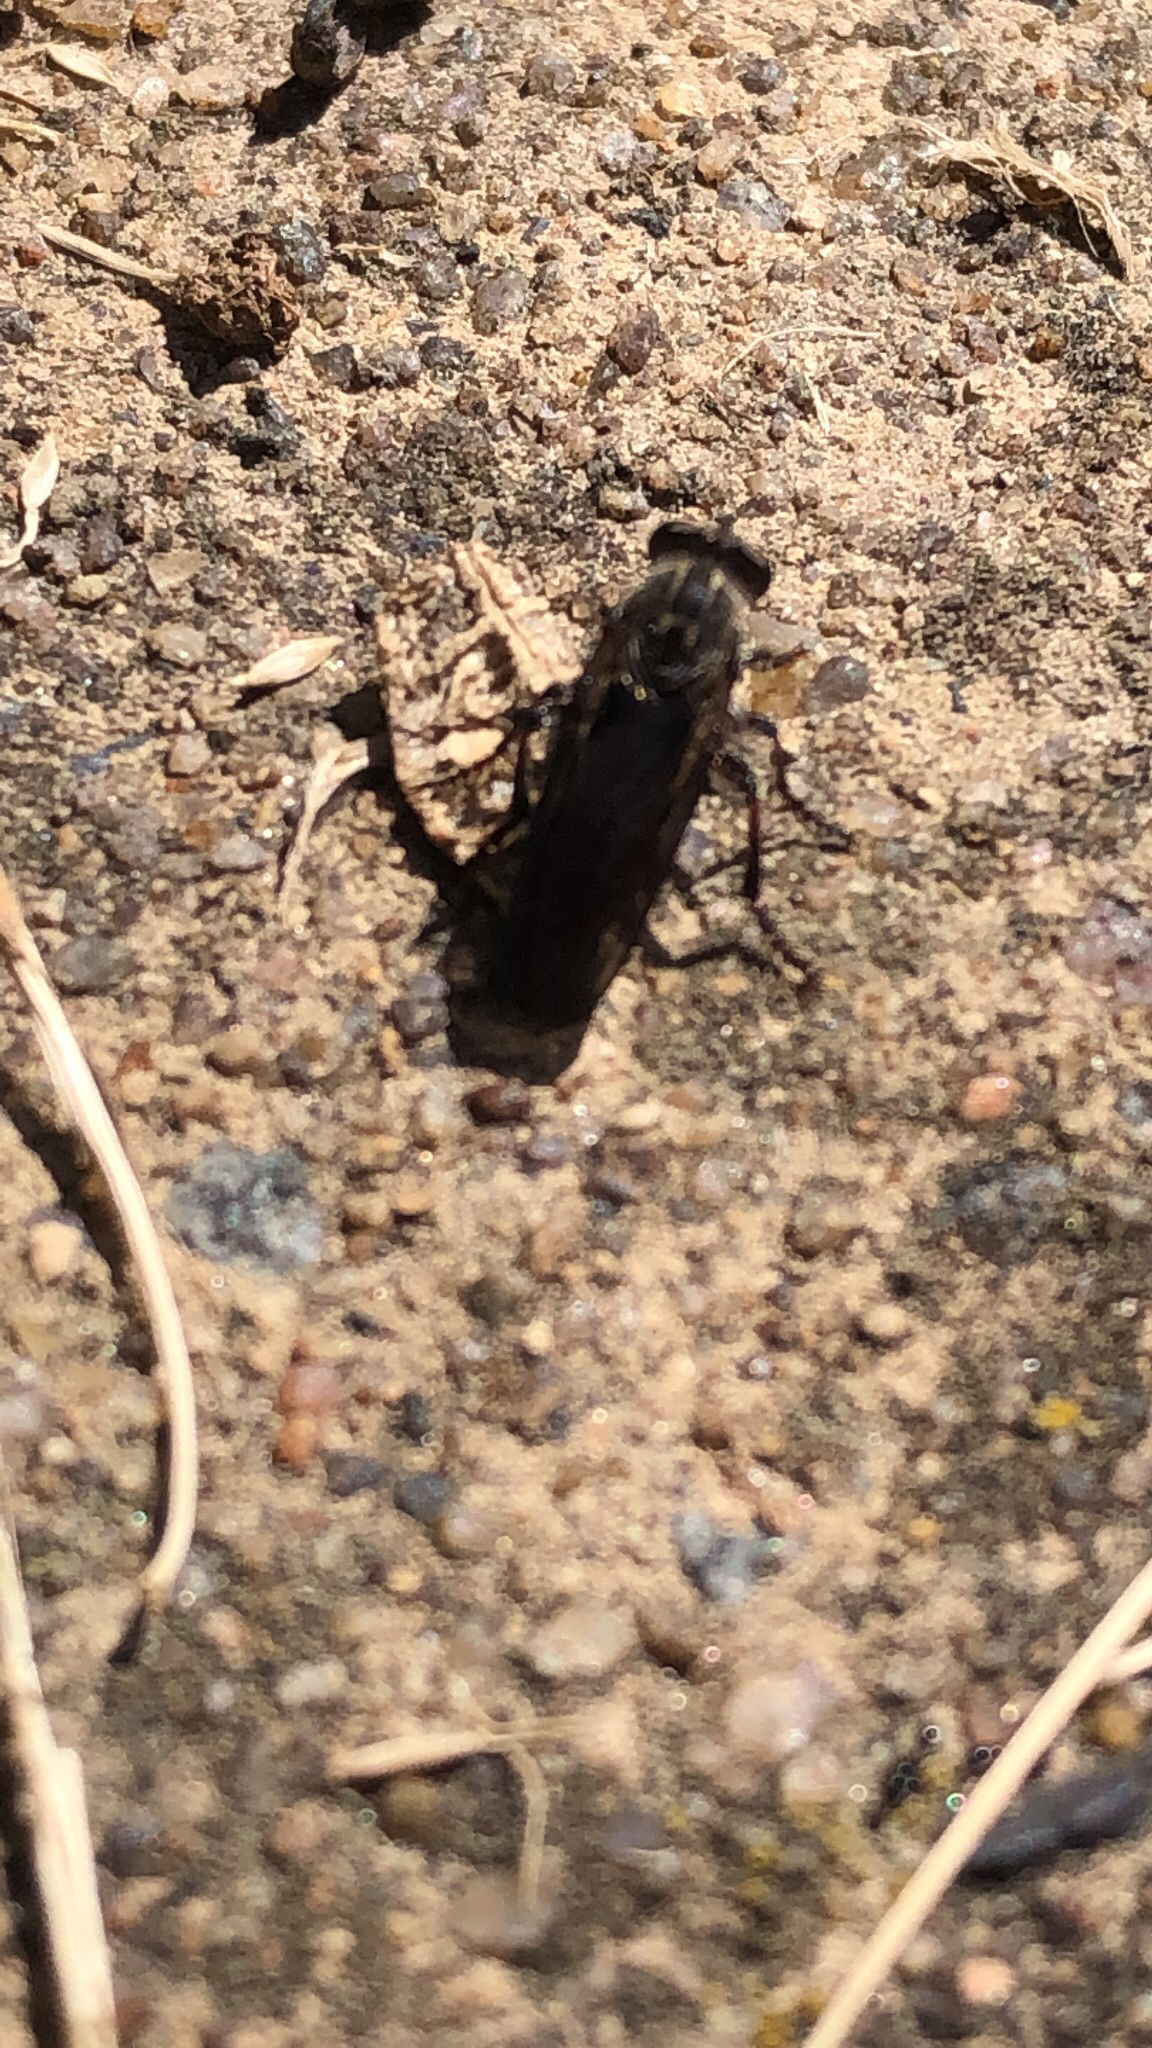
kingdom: Animalia
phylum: Arthropoda
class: Insecta
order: Diptera
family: Asilidae
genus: Heteropogon
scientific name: Heteropogon macerinus
